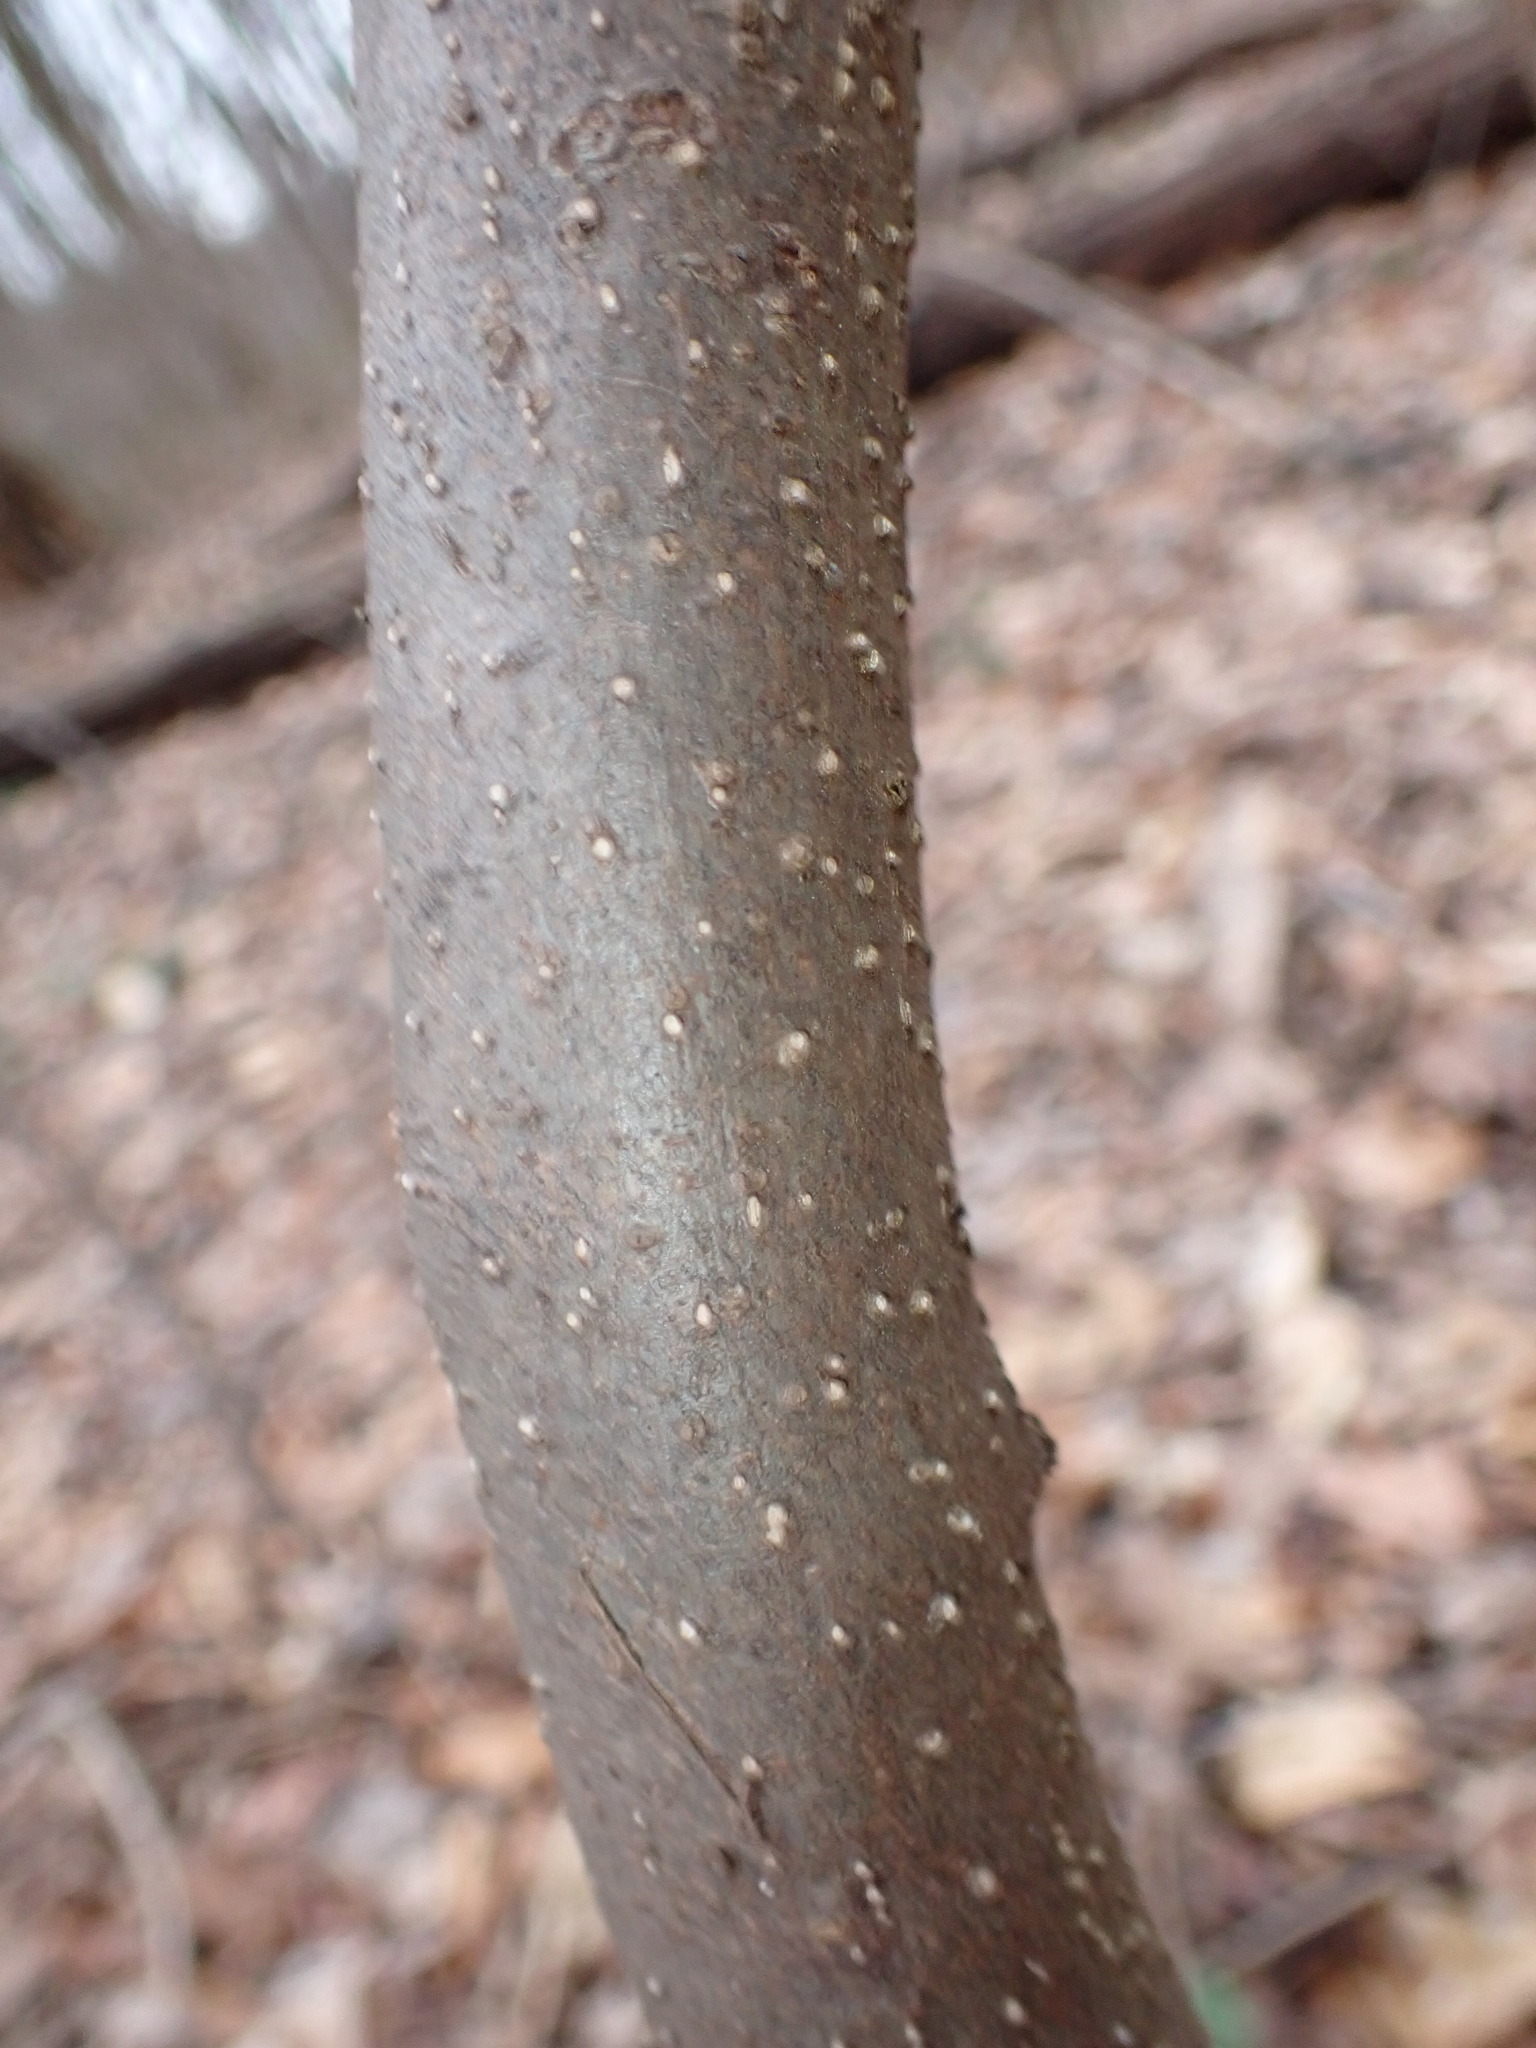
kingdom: Plantae
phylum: Tracheophyta
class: Magnoliopsida
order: Laurales
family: Lauraceae
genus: Lindera
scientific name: Lindera benzoin
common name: Spicebush
